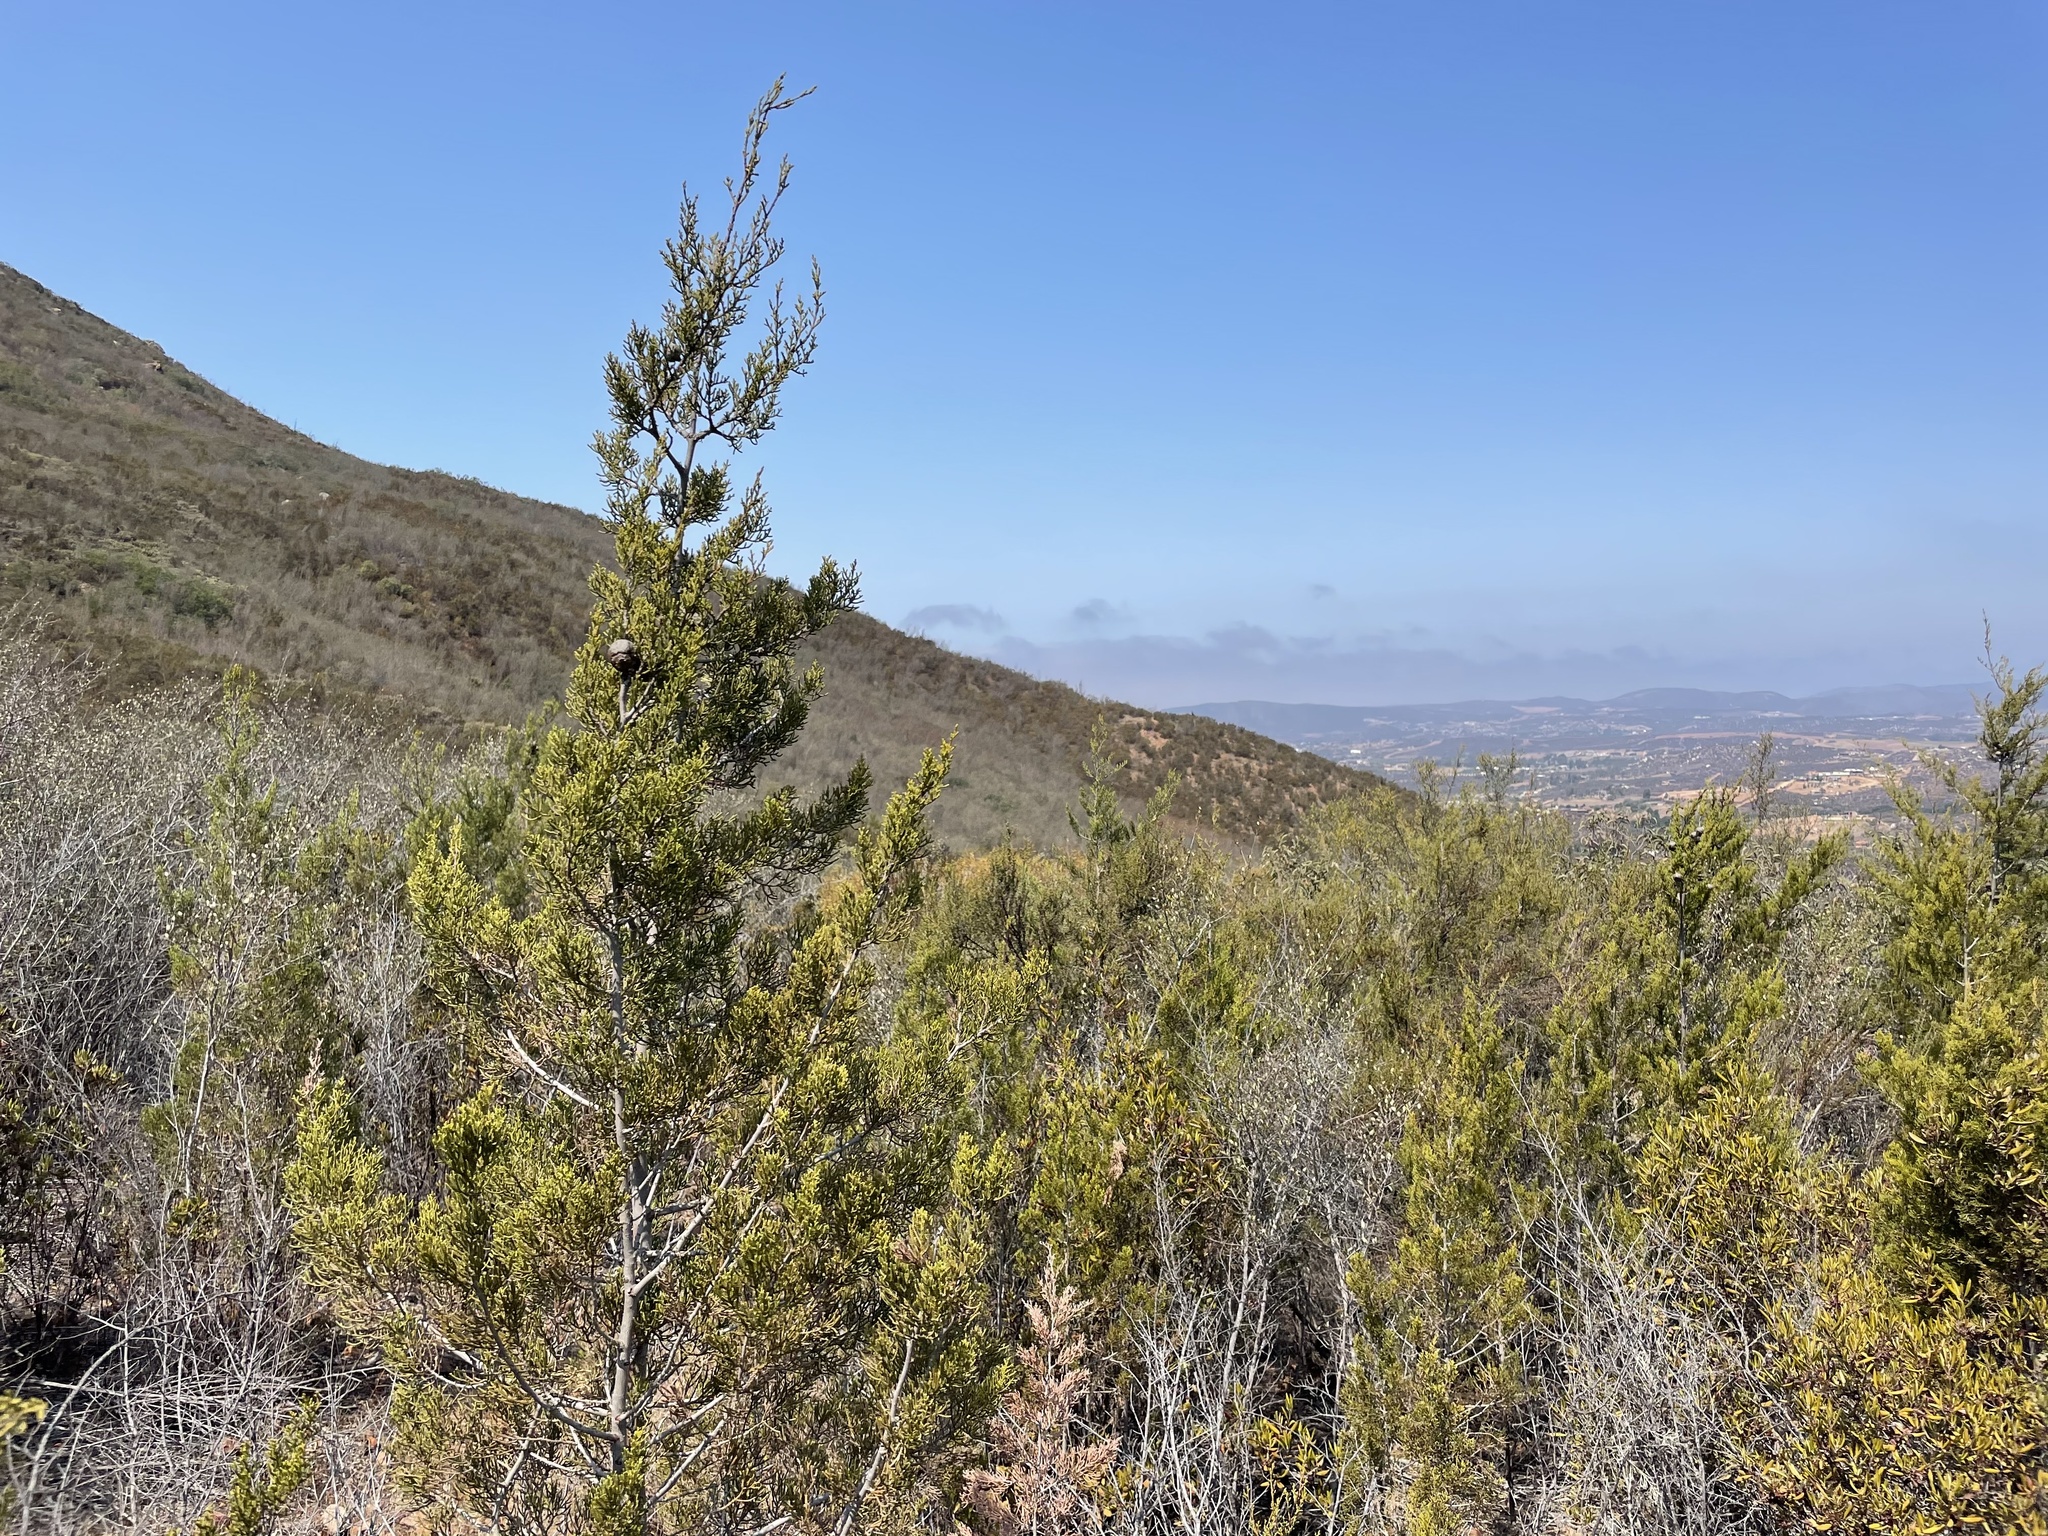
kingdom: Plantae
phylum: Tracheophyta
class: Pinopsida
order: Pinales
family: Cupressaceae
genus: Cupressus
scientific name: Cupressus guadalupensis
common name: Forbes cypress
